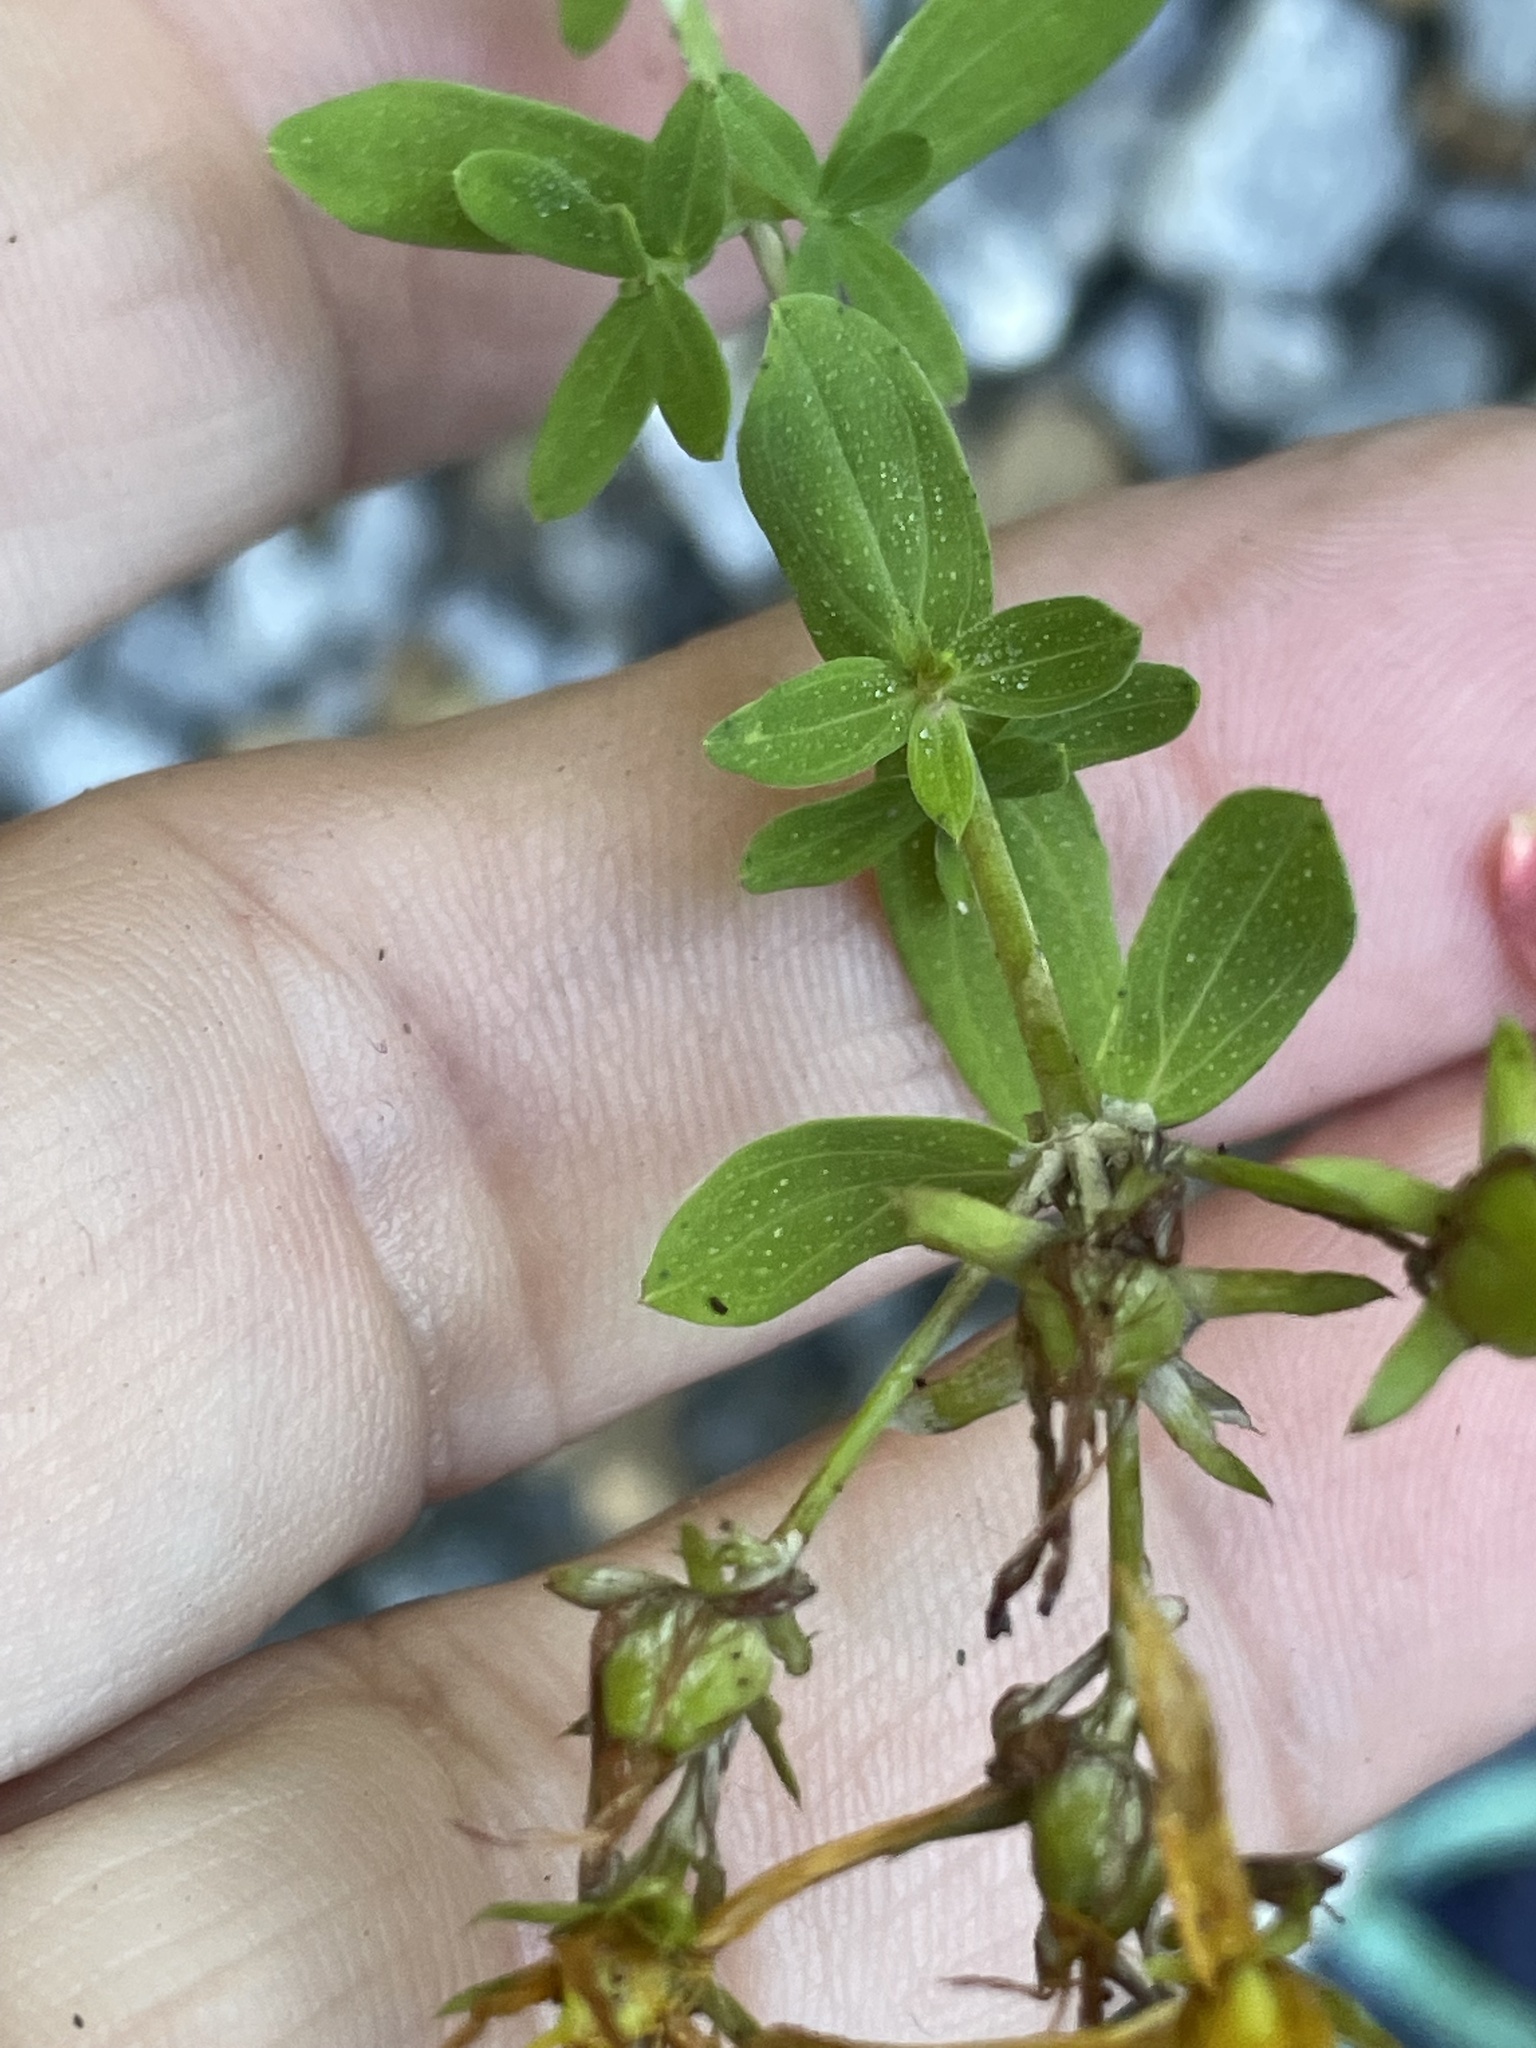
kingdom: Plantae
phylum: Tracheophyta
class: Magnoliopsida
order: Malpighiales
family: Hypericaceae
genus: Hypericum
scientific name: Hypericum perforatum
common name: Common st. johnswort
